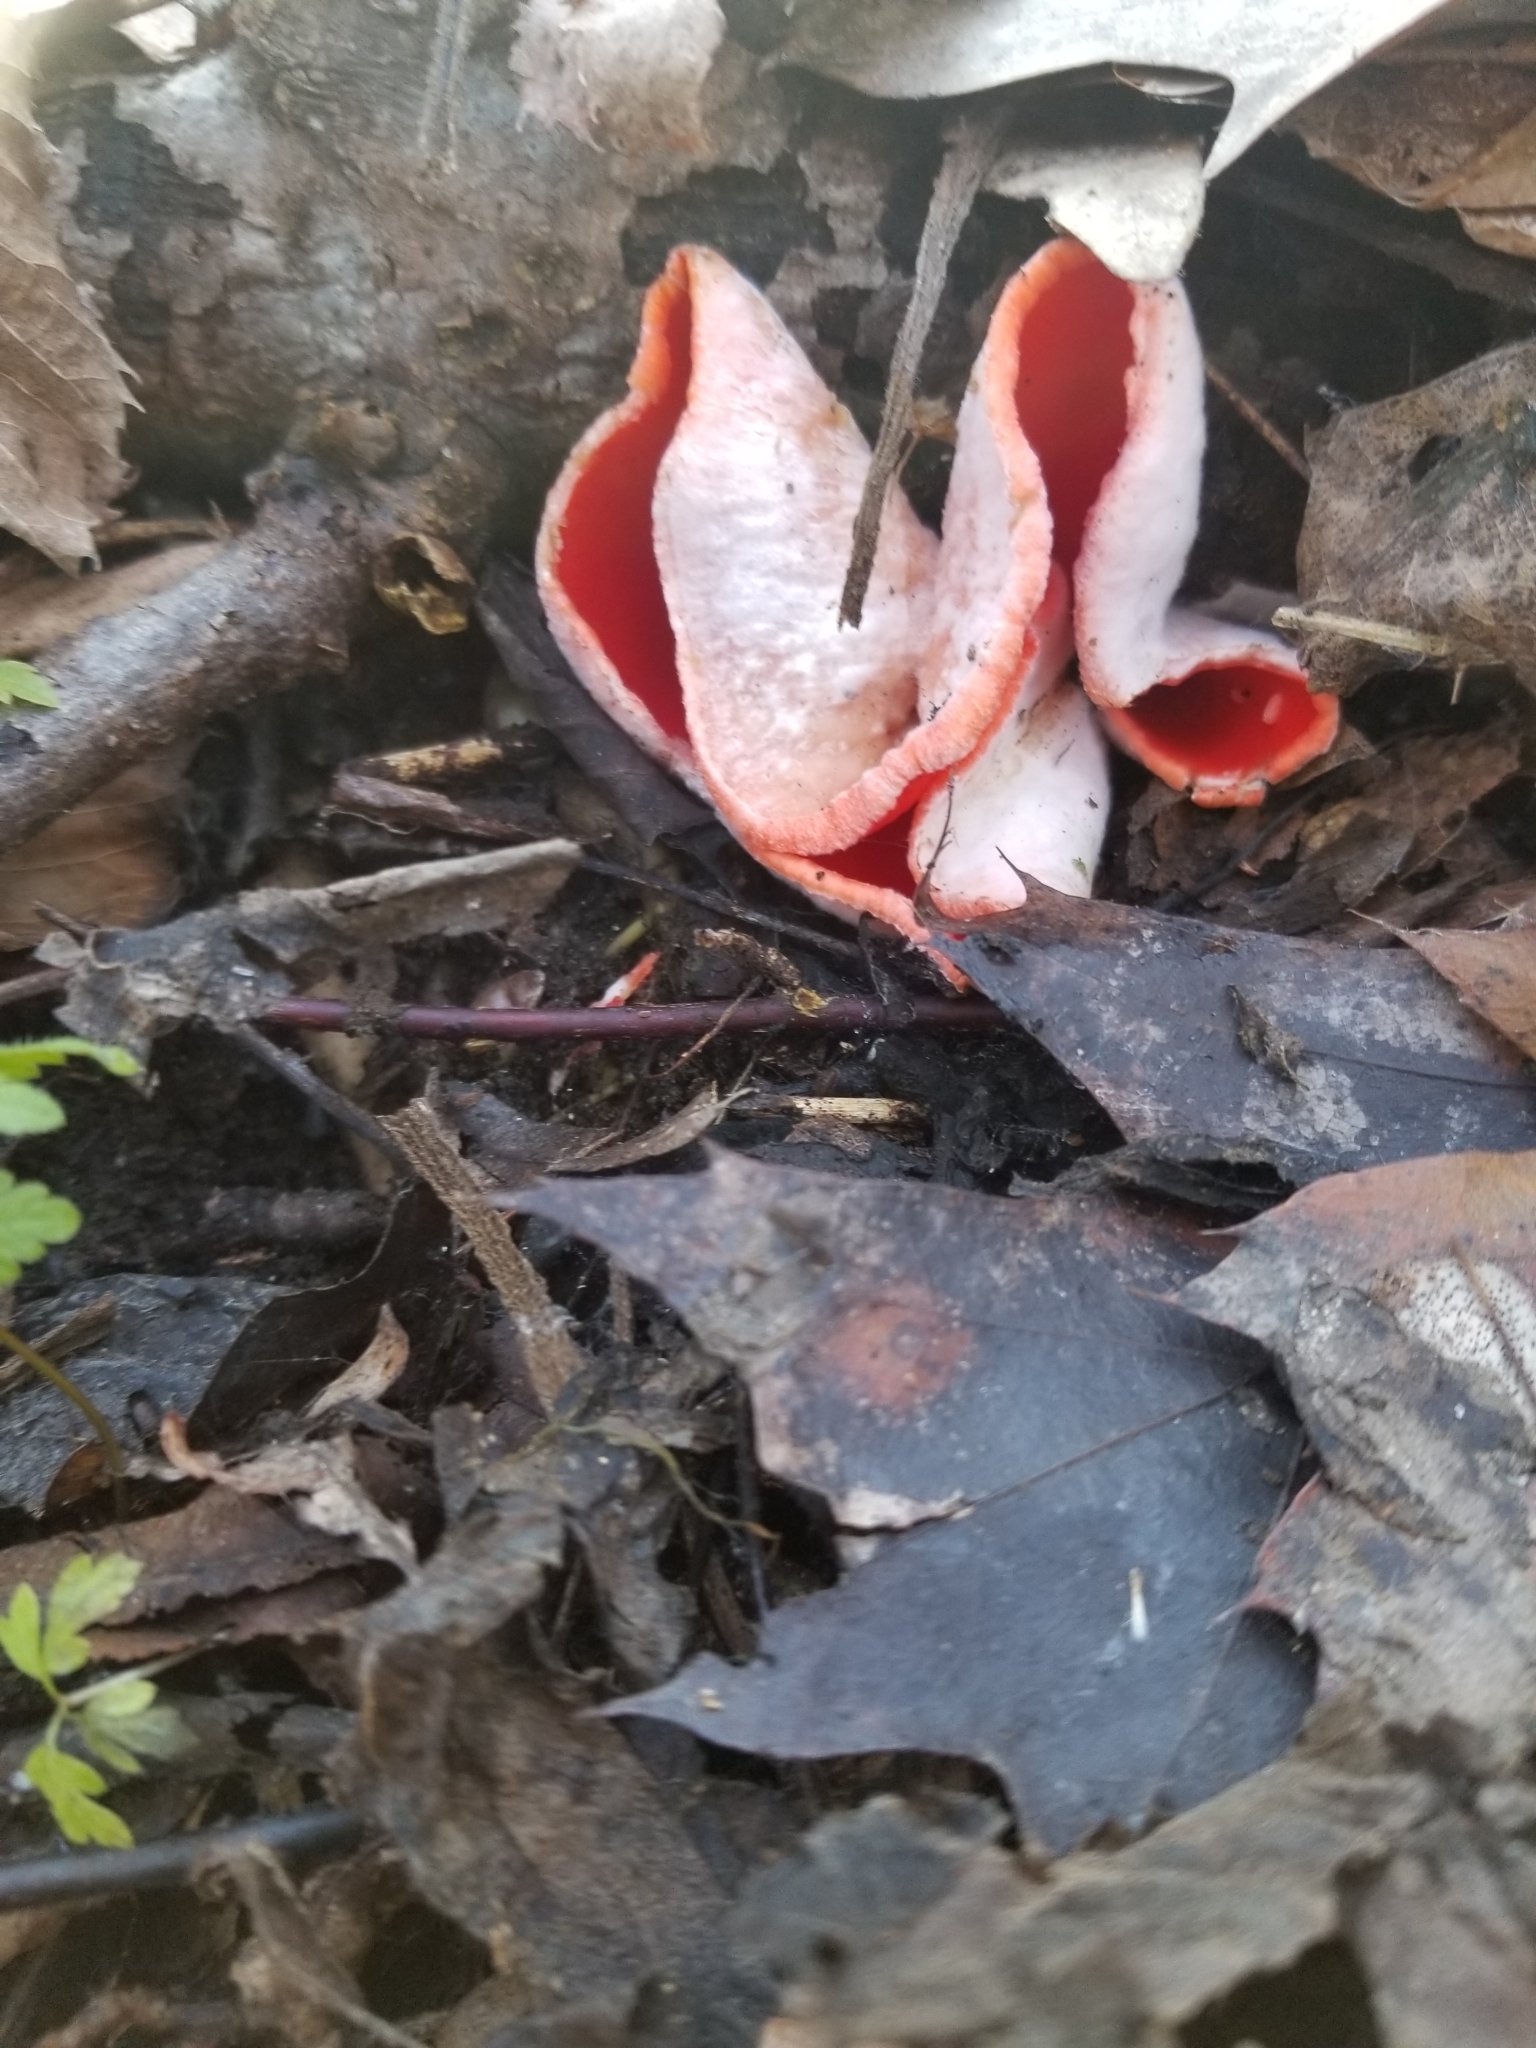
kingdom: Fungi
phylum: Ascomycota
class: Pezizomycetes
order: Pezizales
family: Sarcoscyphaceae
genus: Sarcoscypha
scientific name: Sarcoscypha austriaca
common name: Scarlet elfcup
